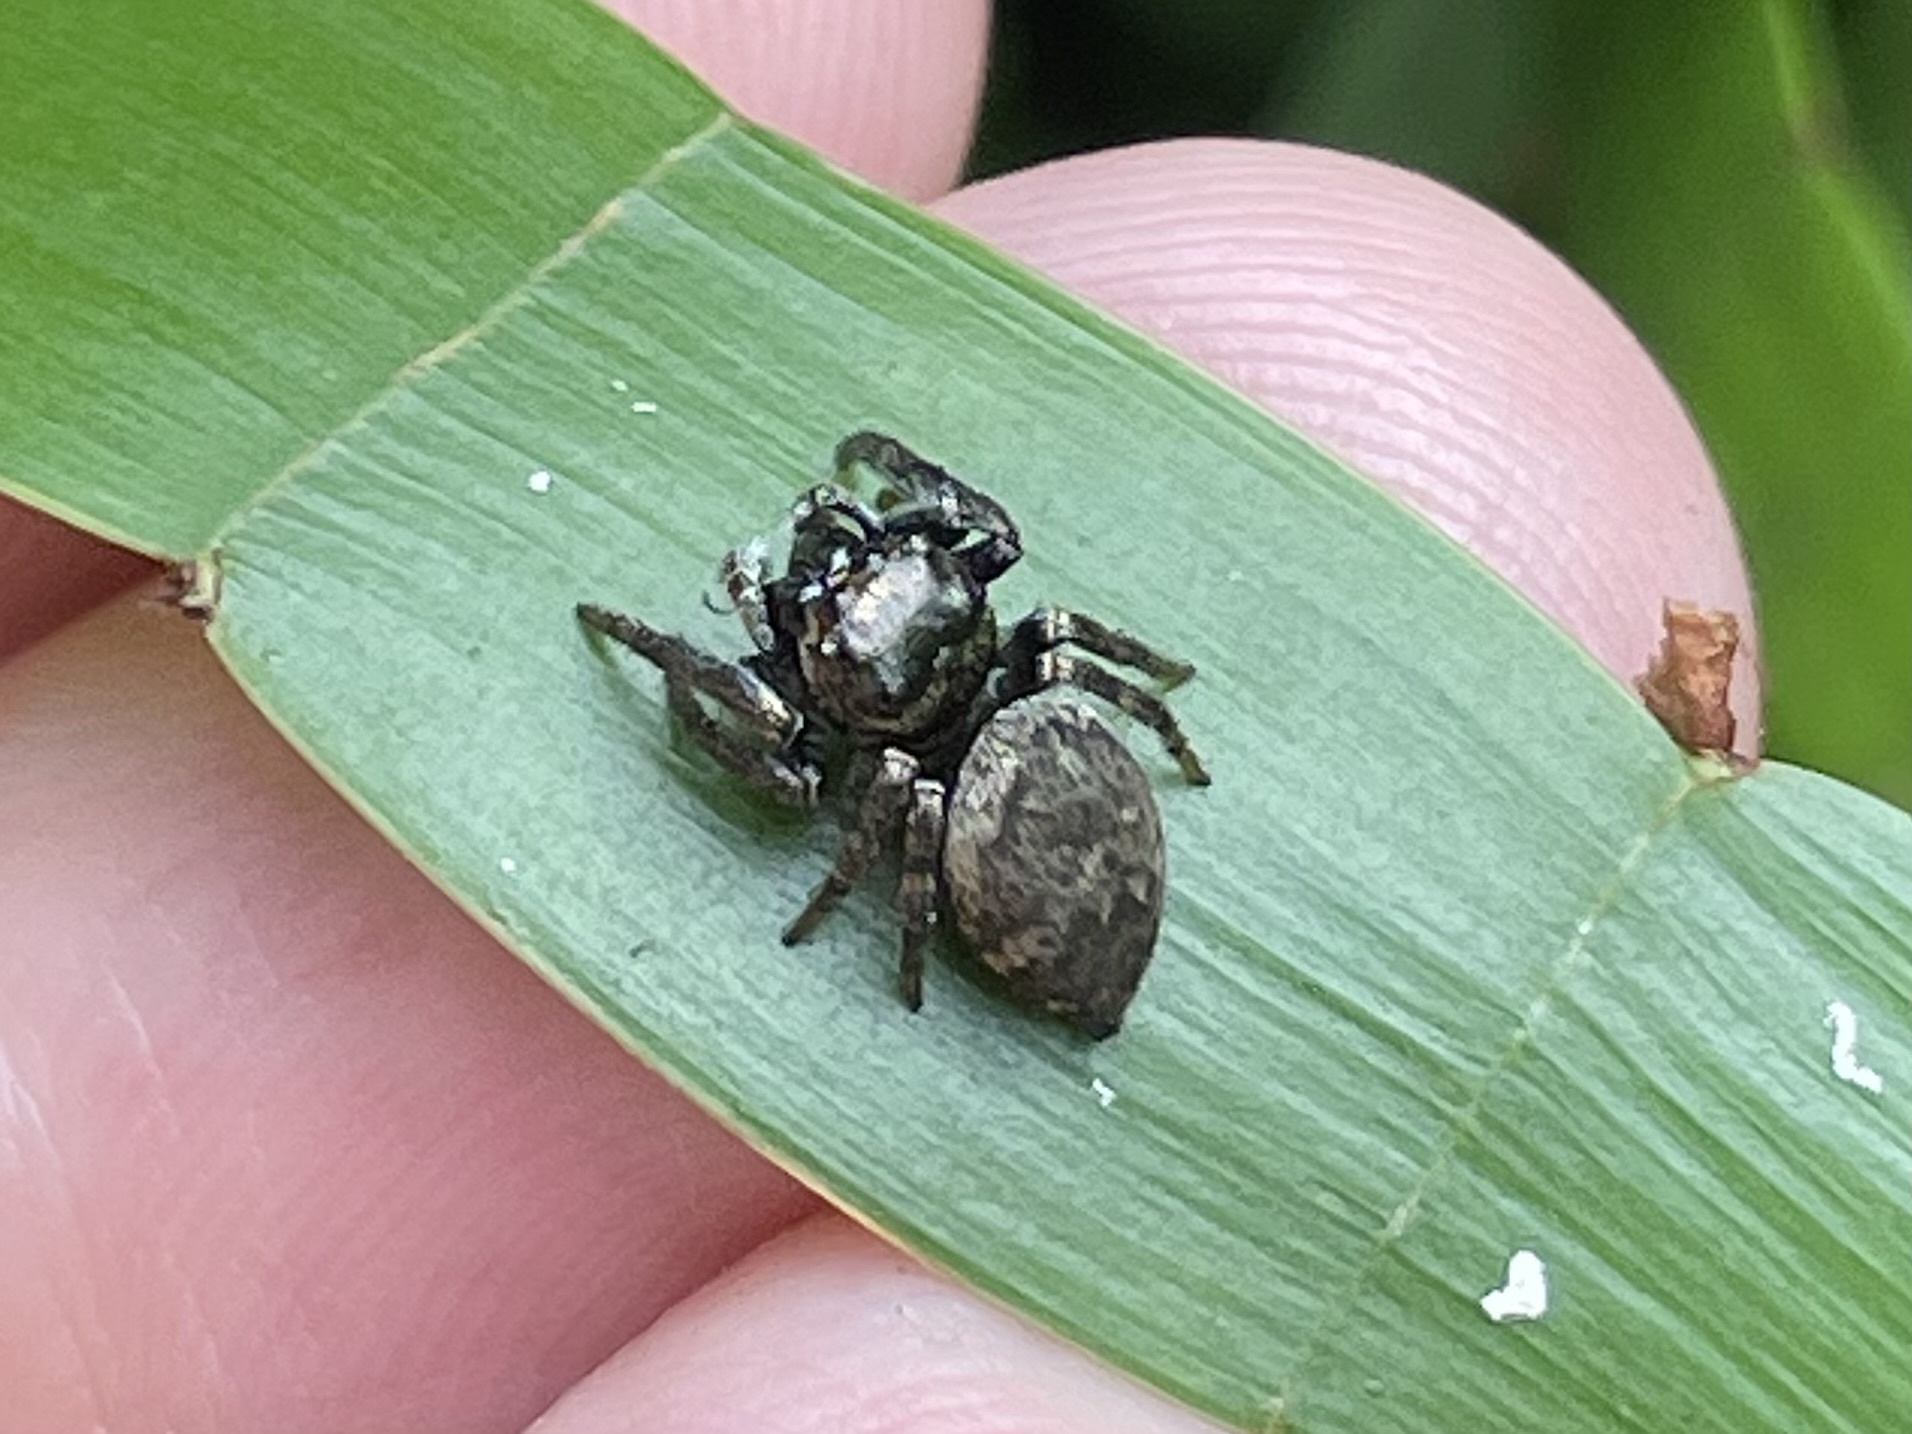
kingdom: Animalia
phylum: Arthropoda
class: Arachnida
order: Araneae
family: Salticidae
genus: Euryattus
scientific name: Euryattus bleekeri
